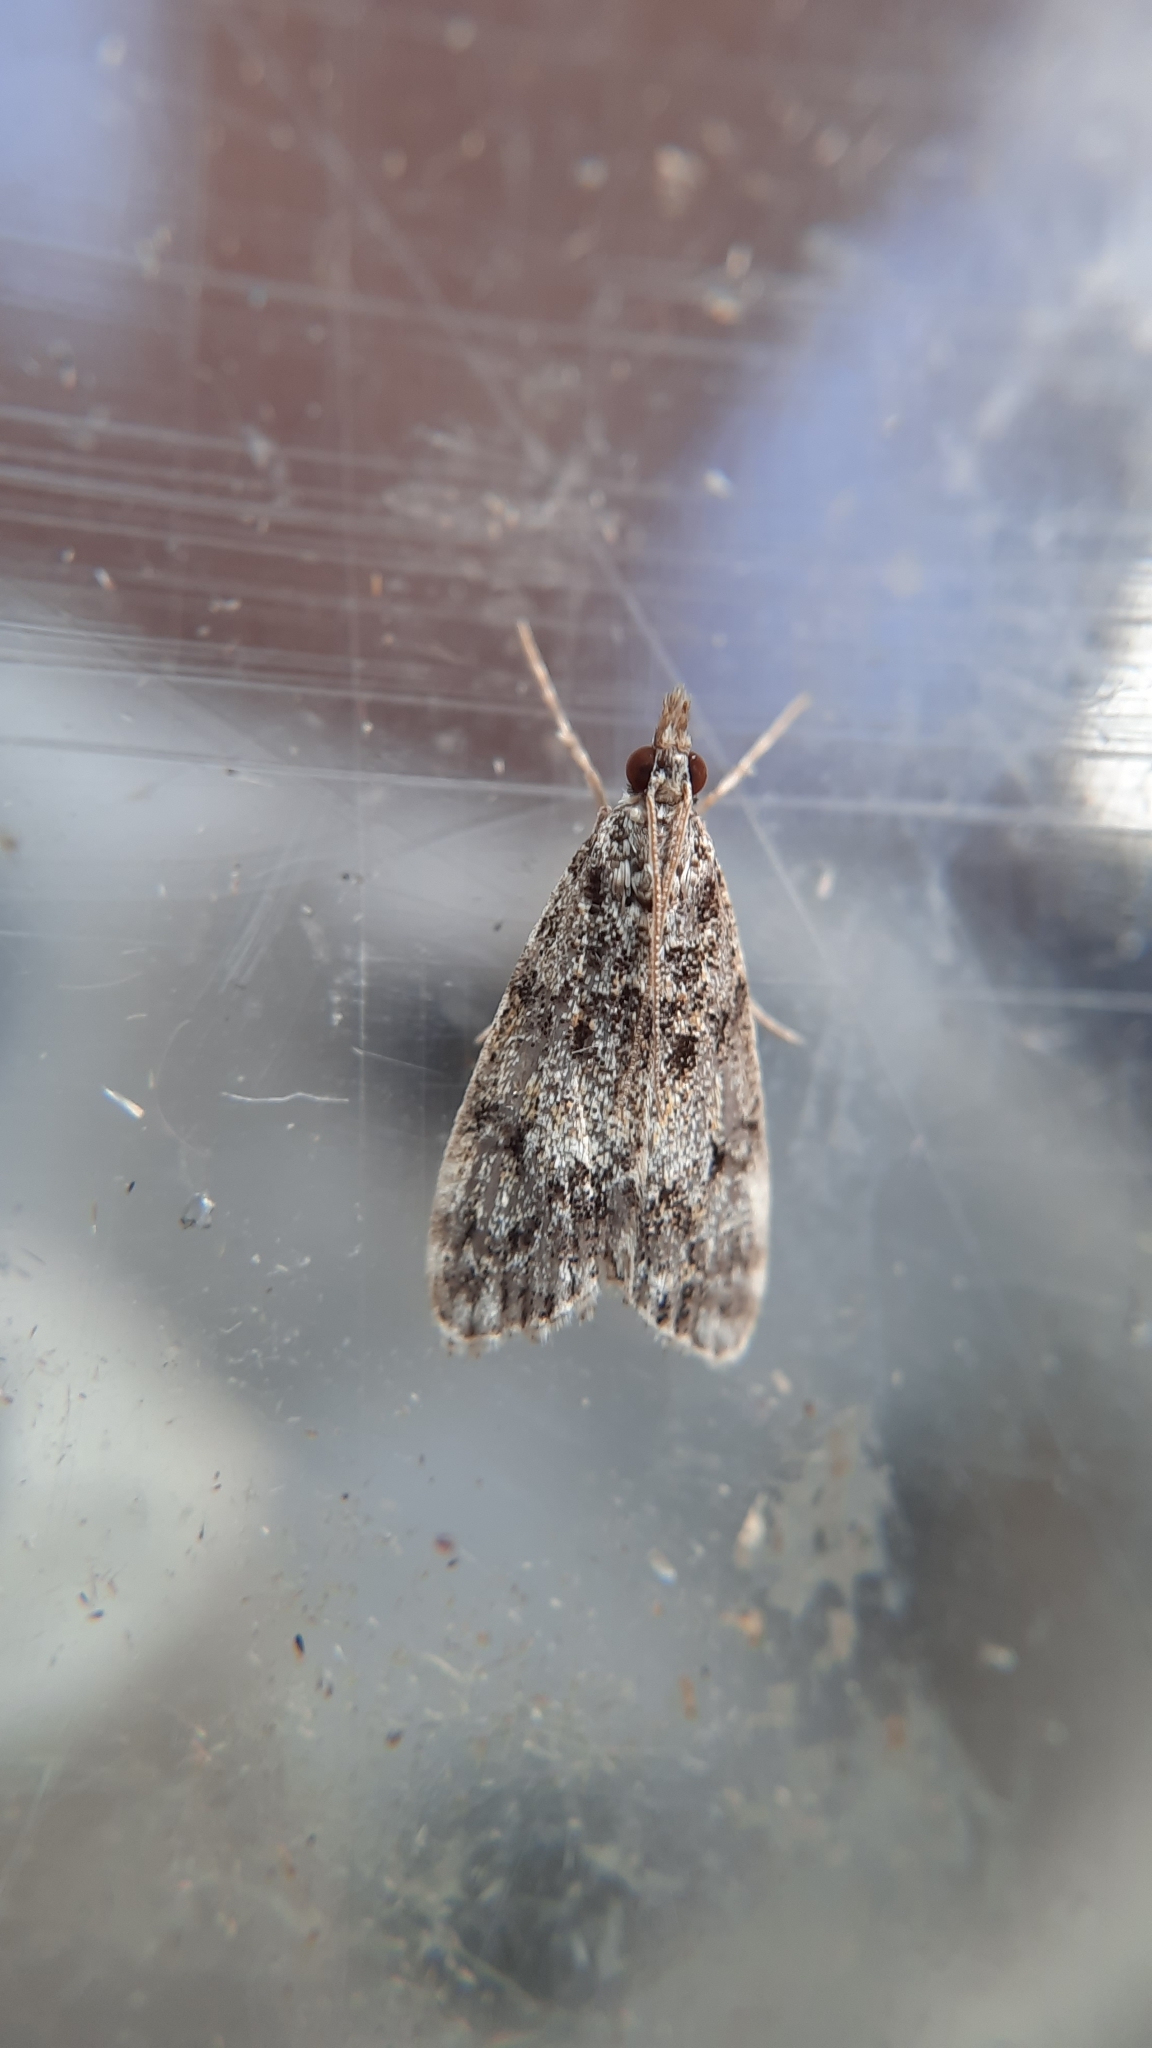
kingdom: Animalia
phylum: Arthropoda
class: Insecta
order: Lepidoptera
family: Crambidae
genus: Eudonia
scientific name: Eudonia lacustrata
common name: Little grey
